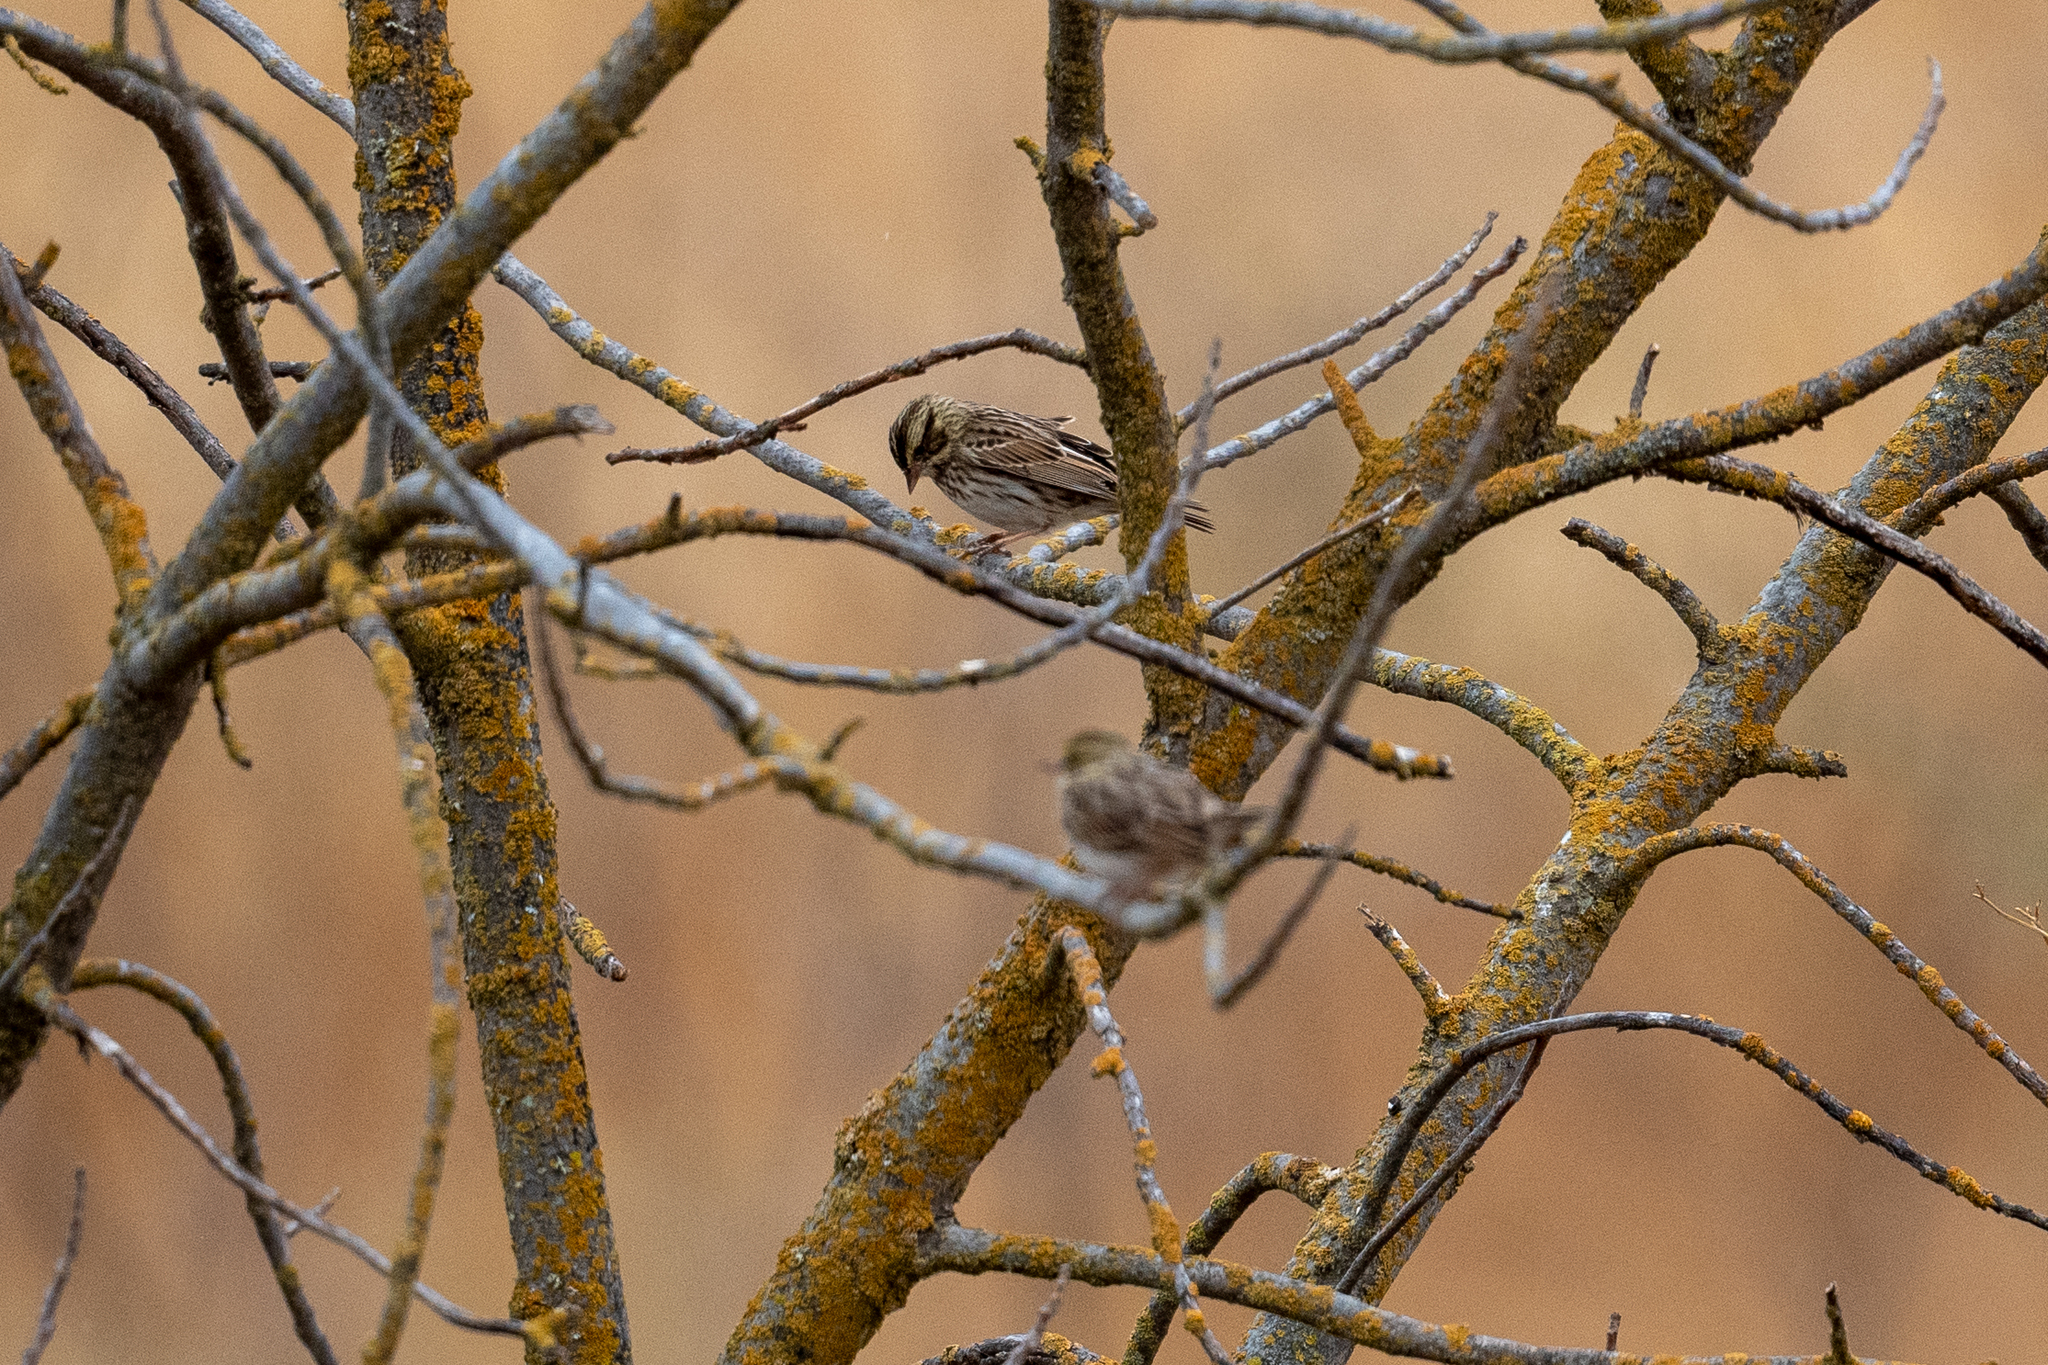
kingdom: Animalia
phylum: Chordata
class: Aves
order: Passeriformes
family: Passerellidae
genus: Passerculus
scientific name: Passerculus sandwichensis
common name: Savannah sparrow
